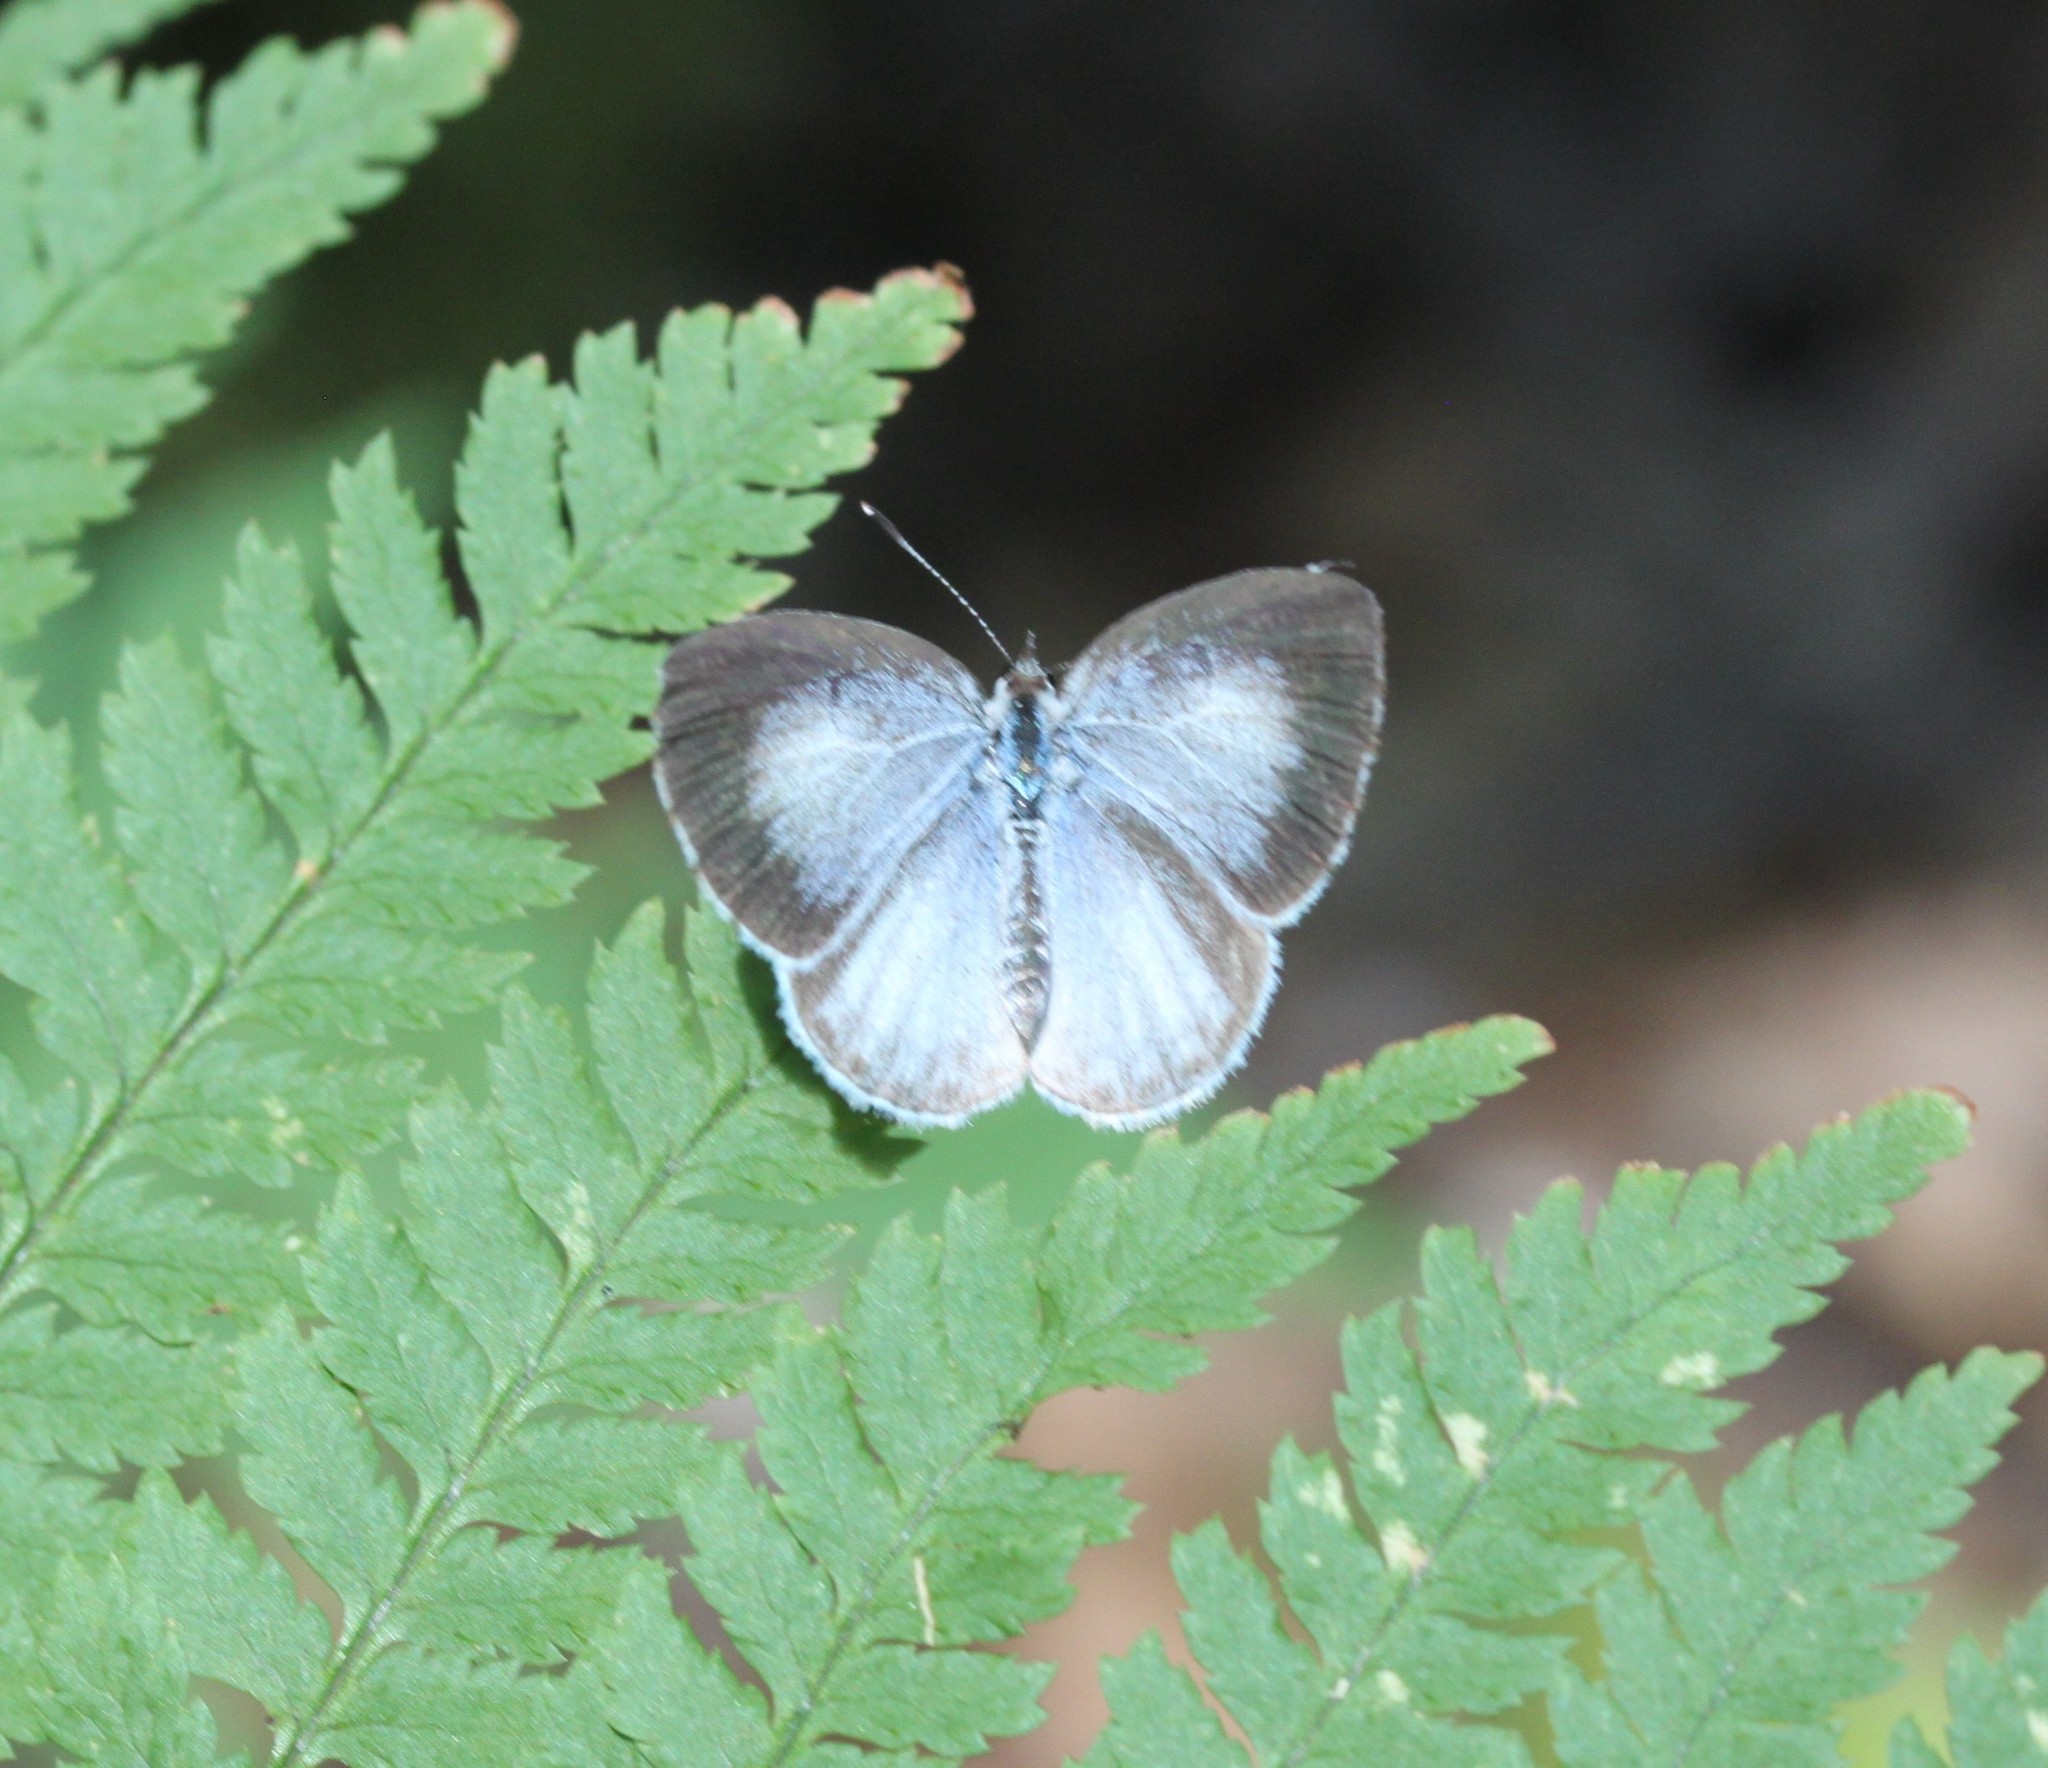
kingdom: Animalia
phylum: Arthropoda
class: Insecta
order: Lepidoptera
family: Lycaenidae
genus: Cyaniris
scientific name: Cyaniris neglecta
